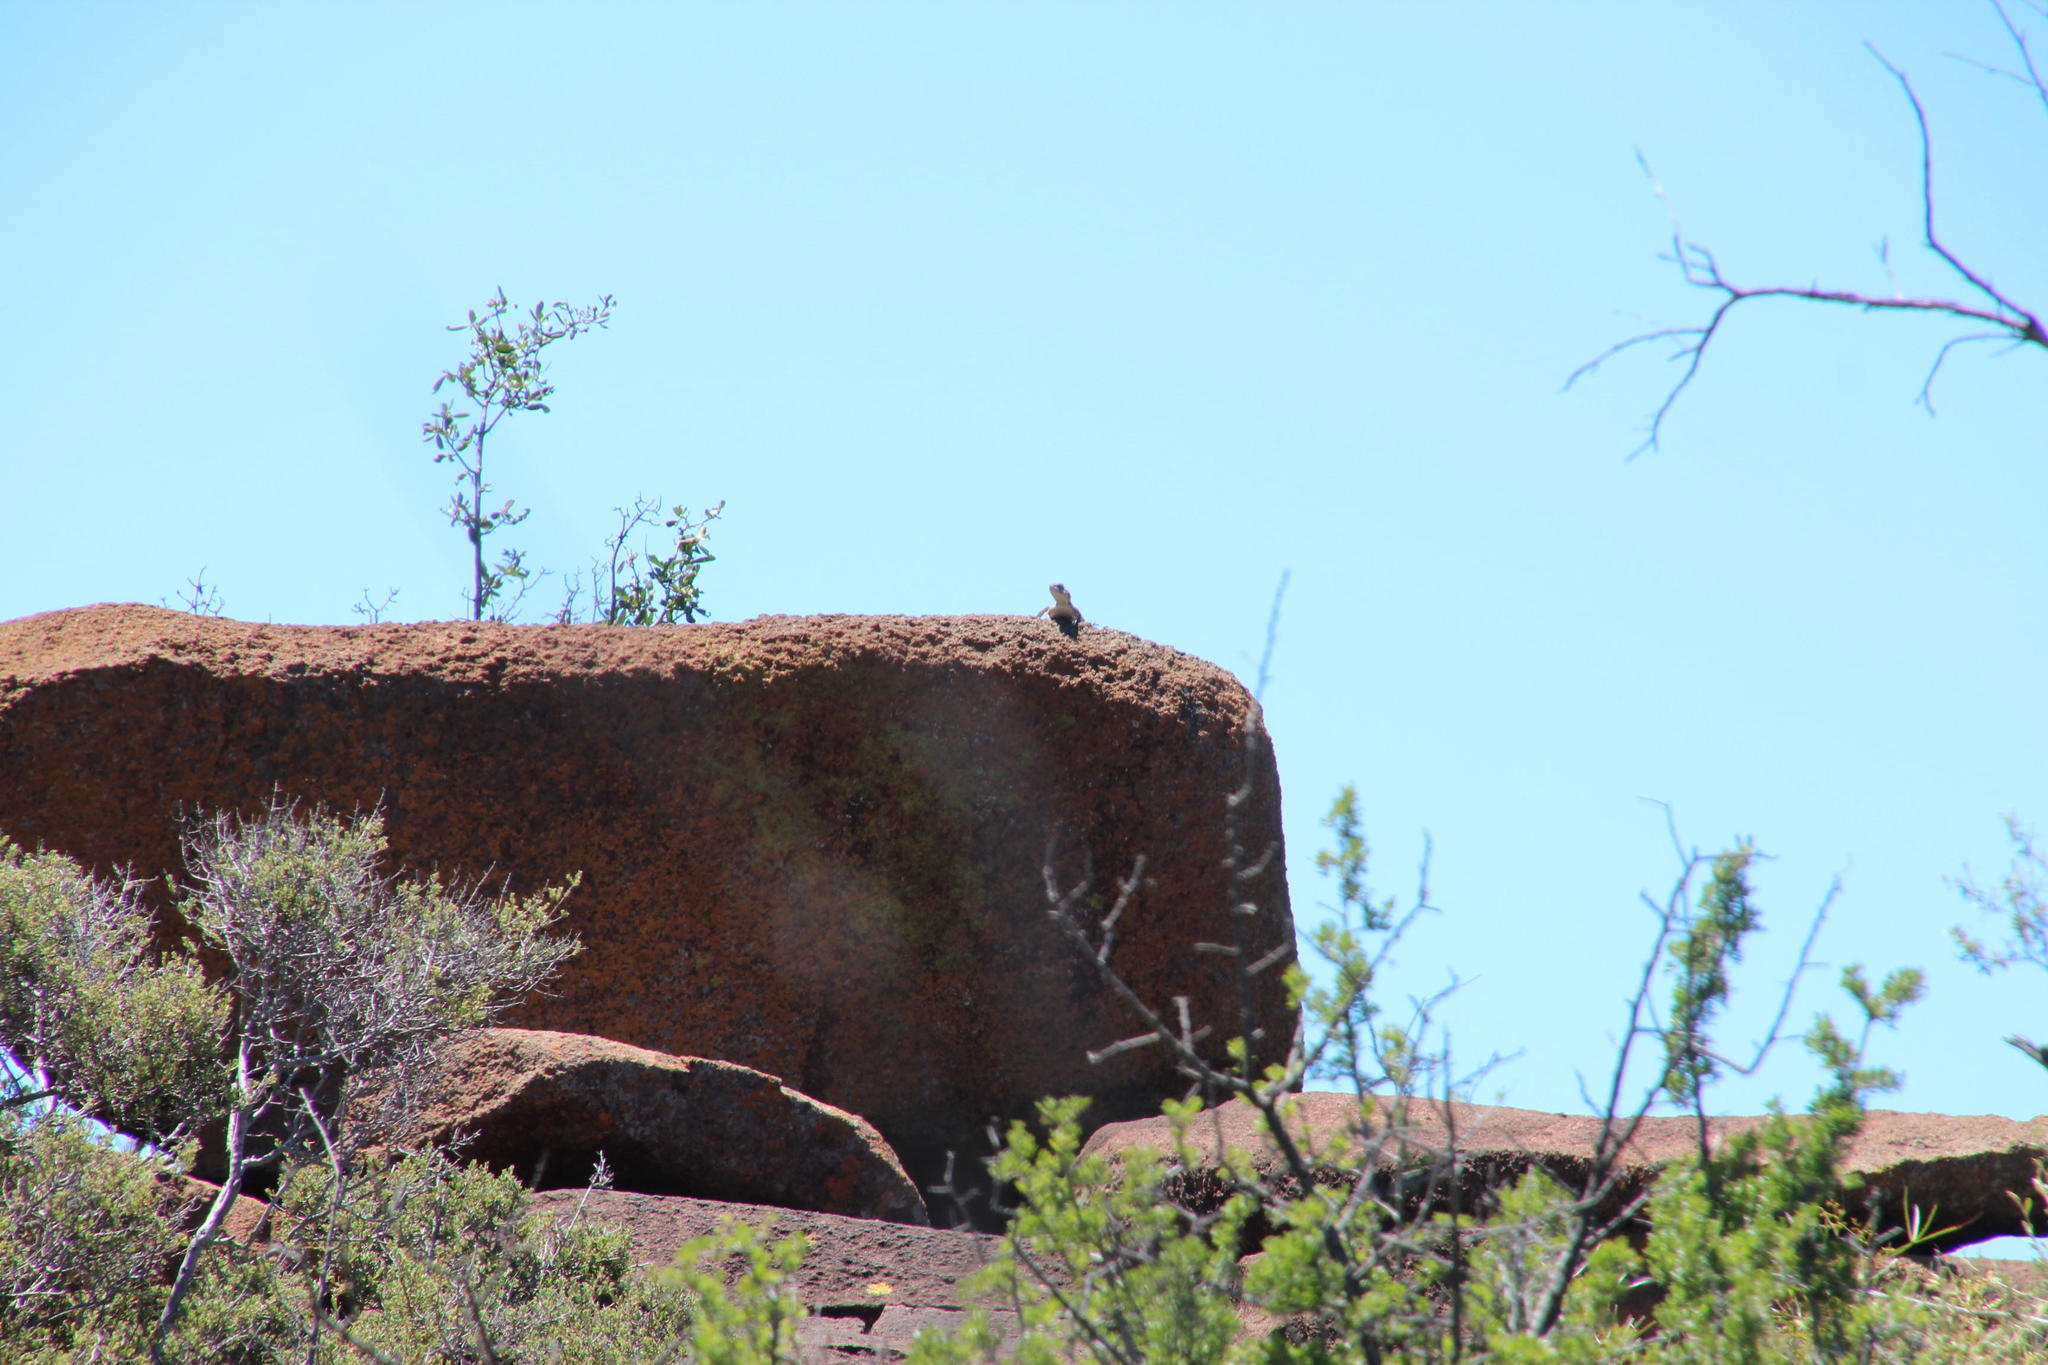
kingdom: Animalia
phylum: Chordata
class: Squamata
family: Agamidae
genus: Agama
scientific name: Agama atra
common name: Southern african rock agama
